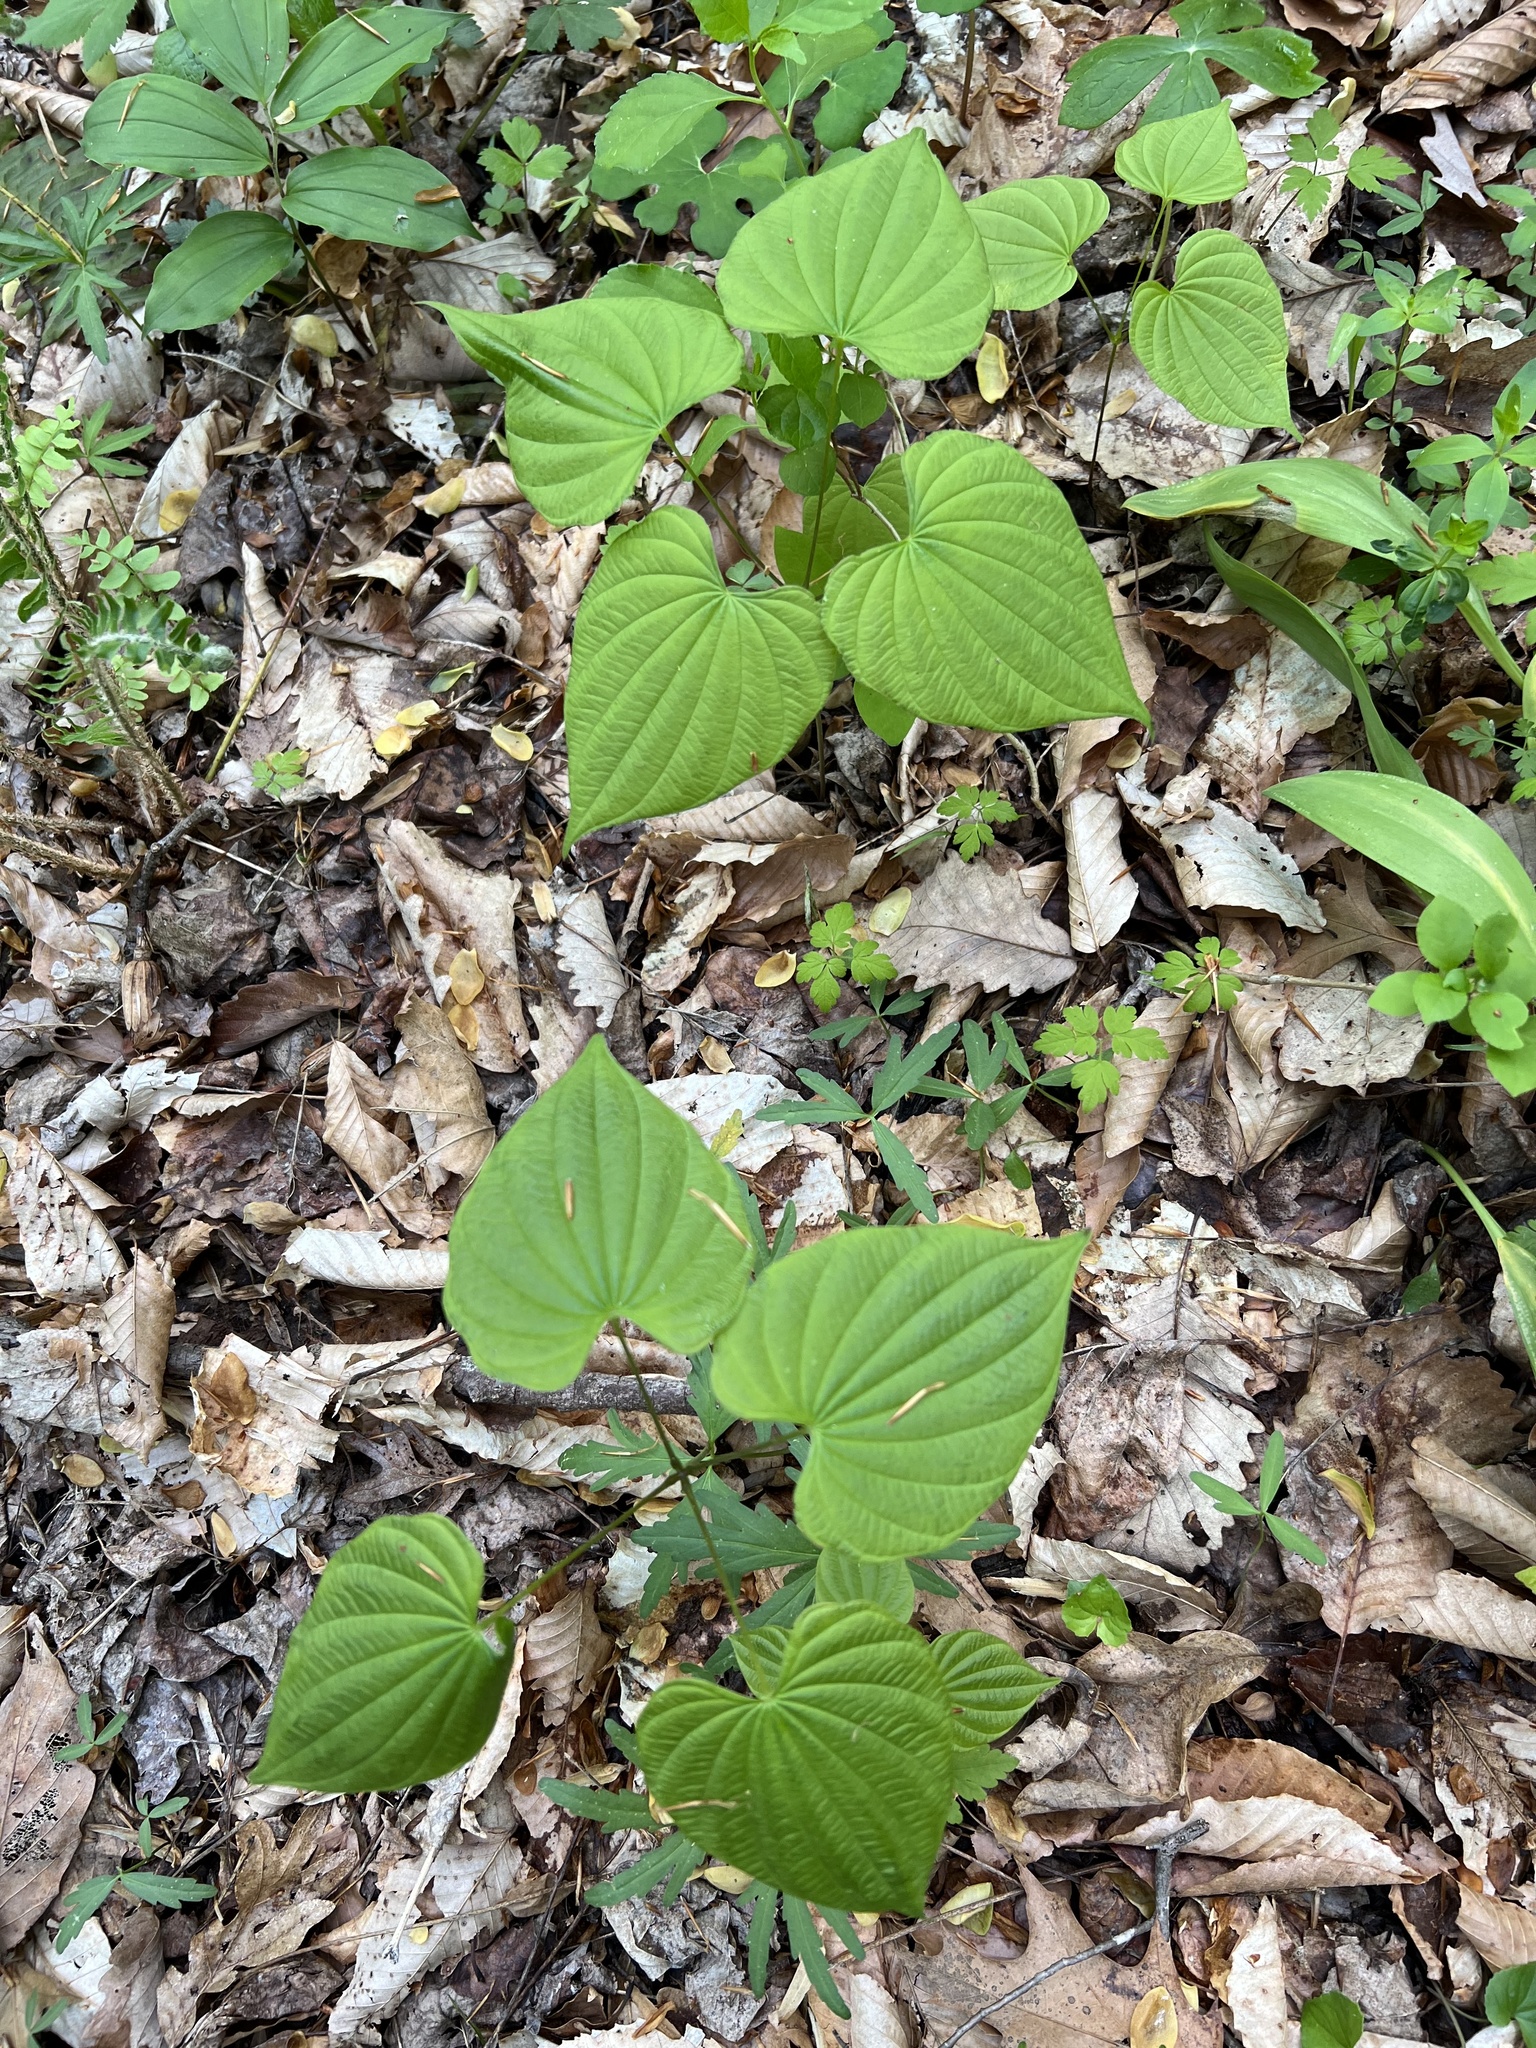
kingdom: Plantae
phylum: Tracheophyta
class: Liliopsida
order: Dioscoreales
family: Dioscoreaceae
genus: Dioscorea
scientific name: Dioscorea villosa
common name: Wild yam
